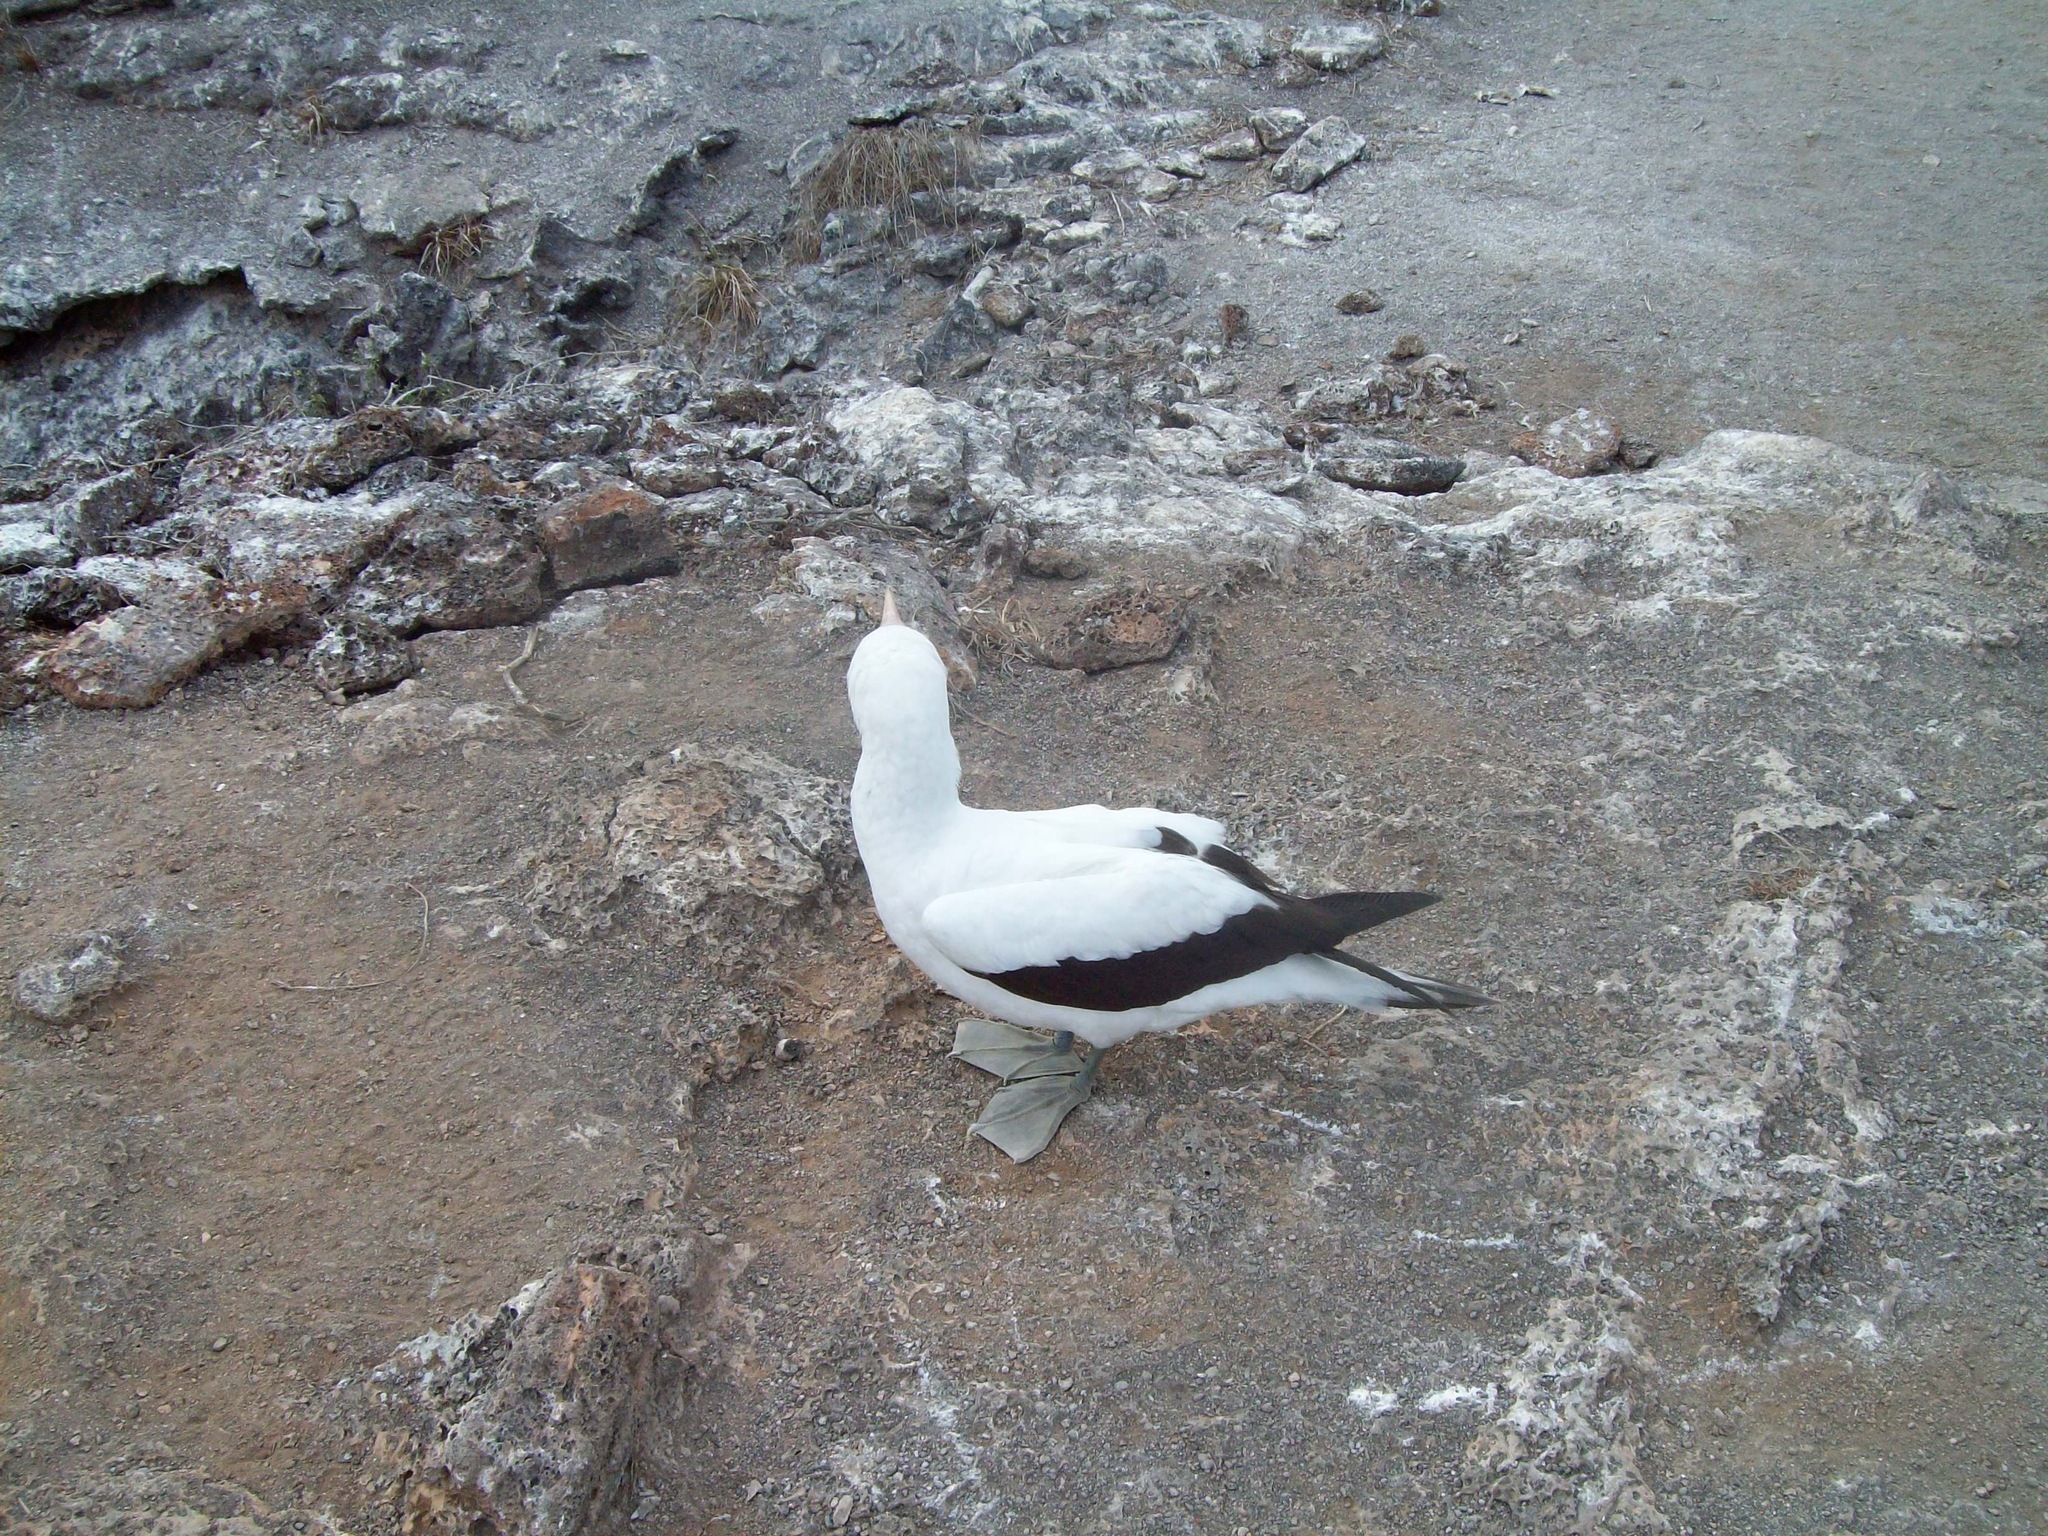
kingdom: Animalia
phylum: Chordata
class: Aves
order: Suliformes
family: Sulidae
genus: Sula
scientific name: Sula granti
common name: Nazca booby
